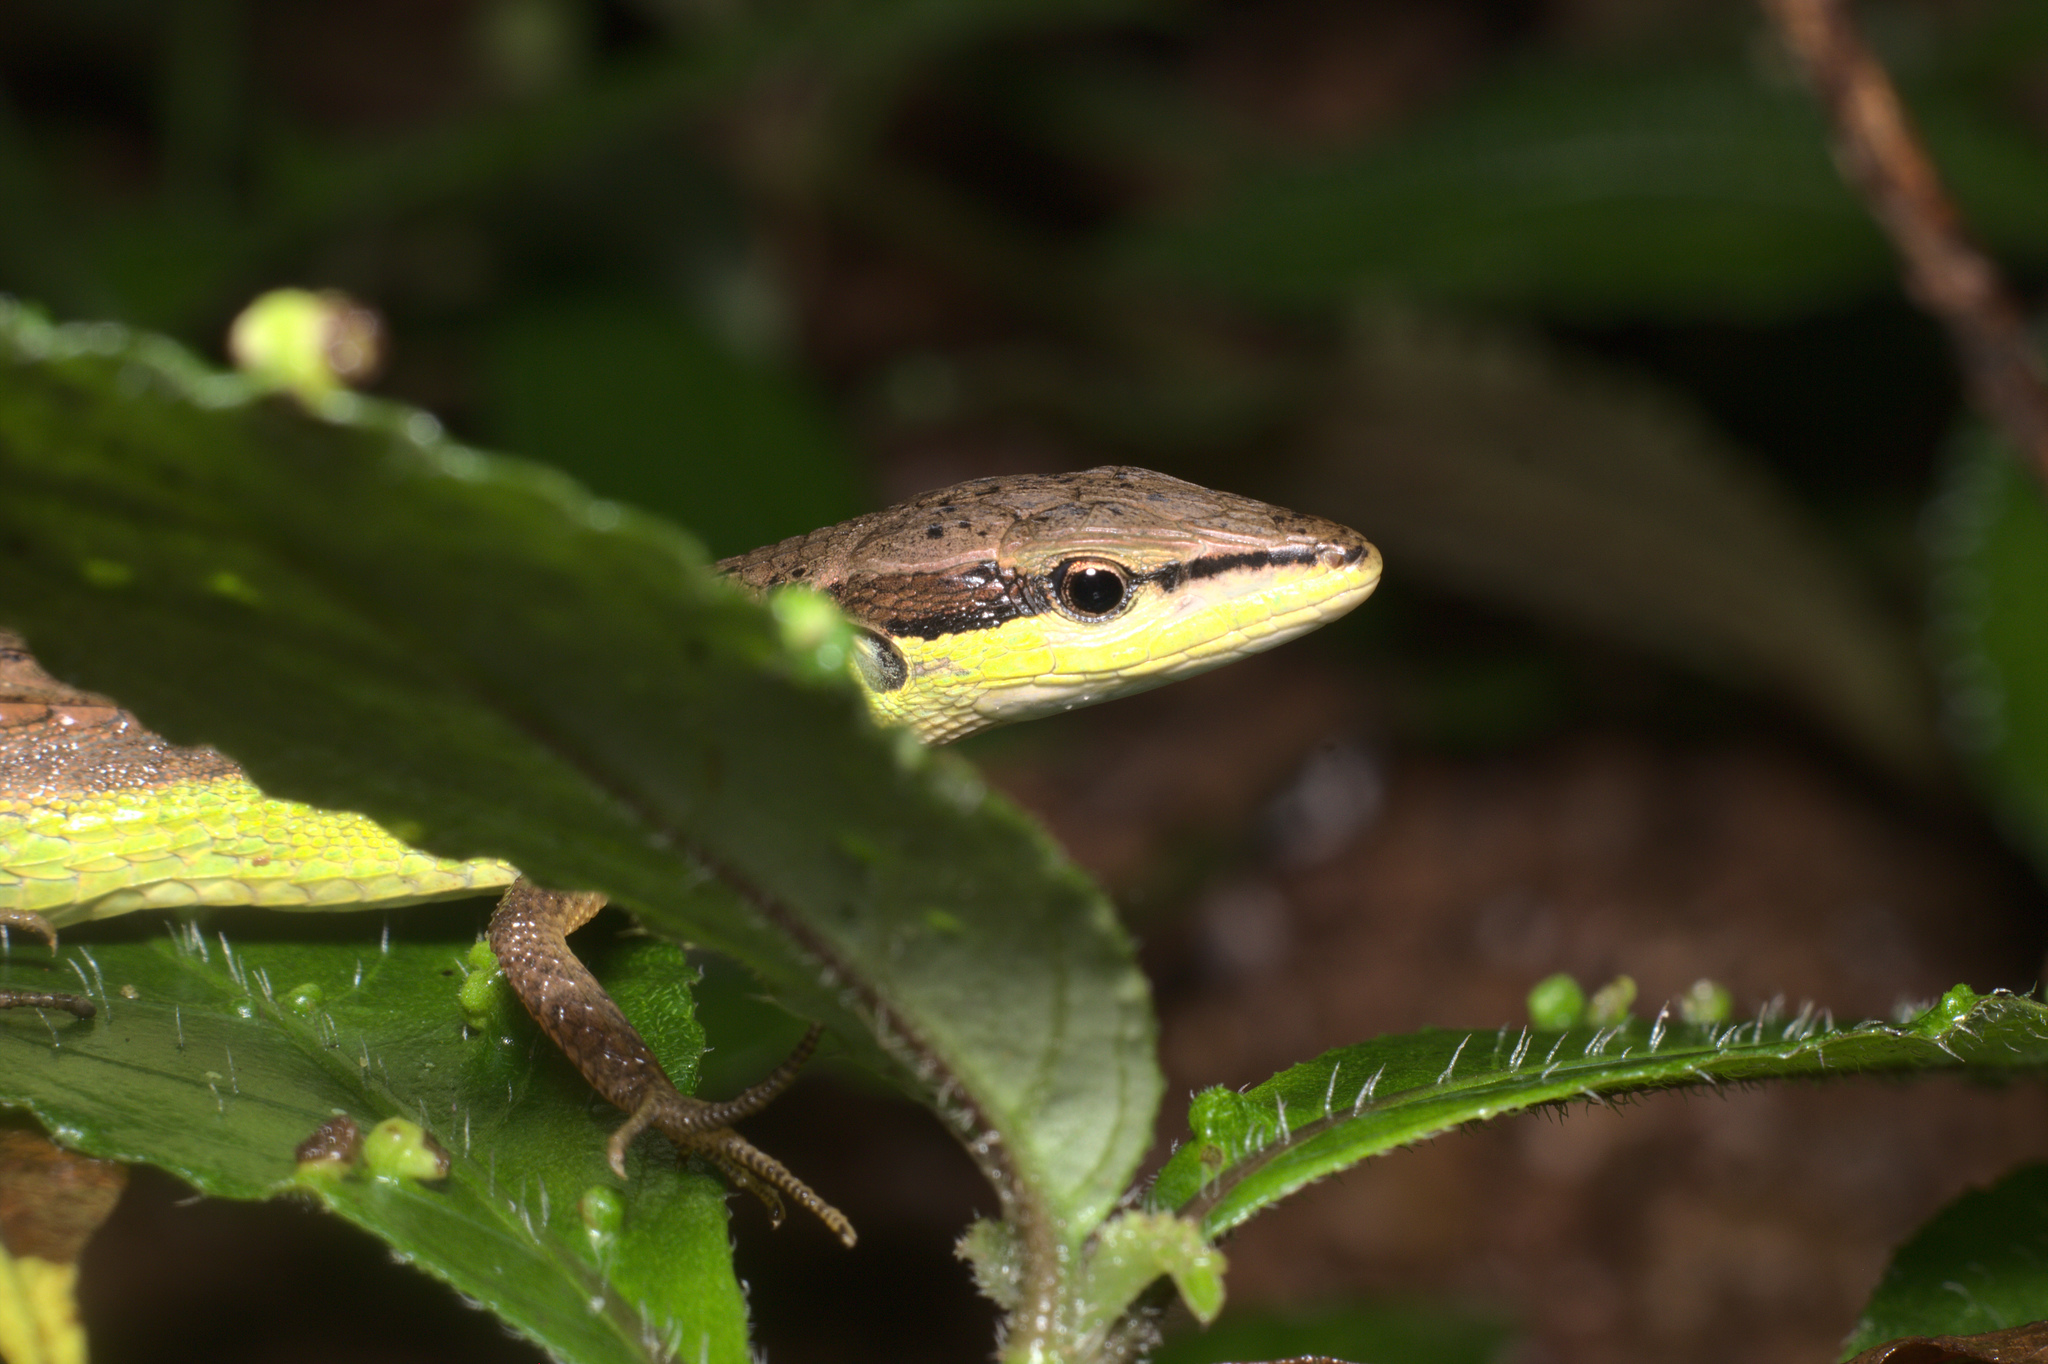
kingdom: Animalia
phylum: Chordata
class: Squamata
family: Lacertidae
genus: Takydromus
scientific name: Takydromus sexlineatus
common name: Asian grass lizard
